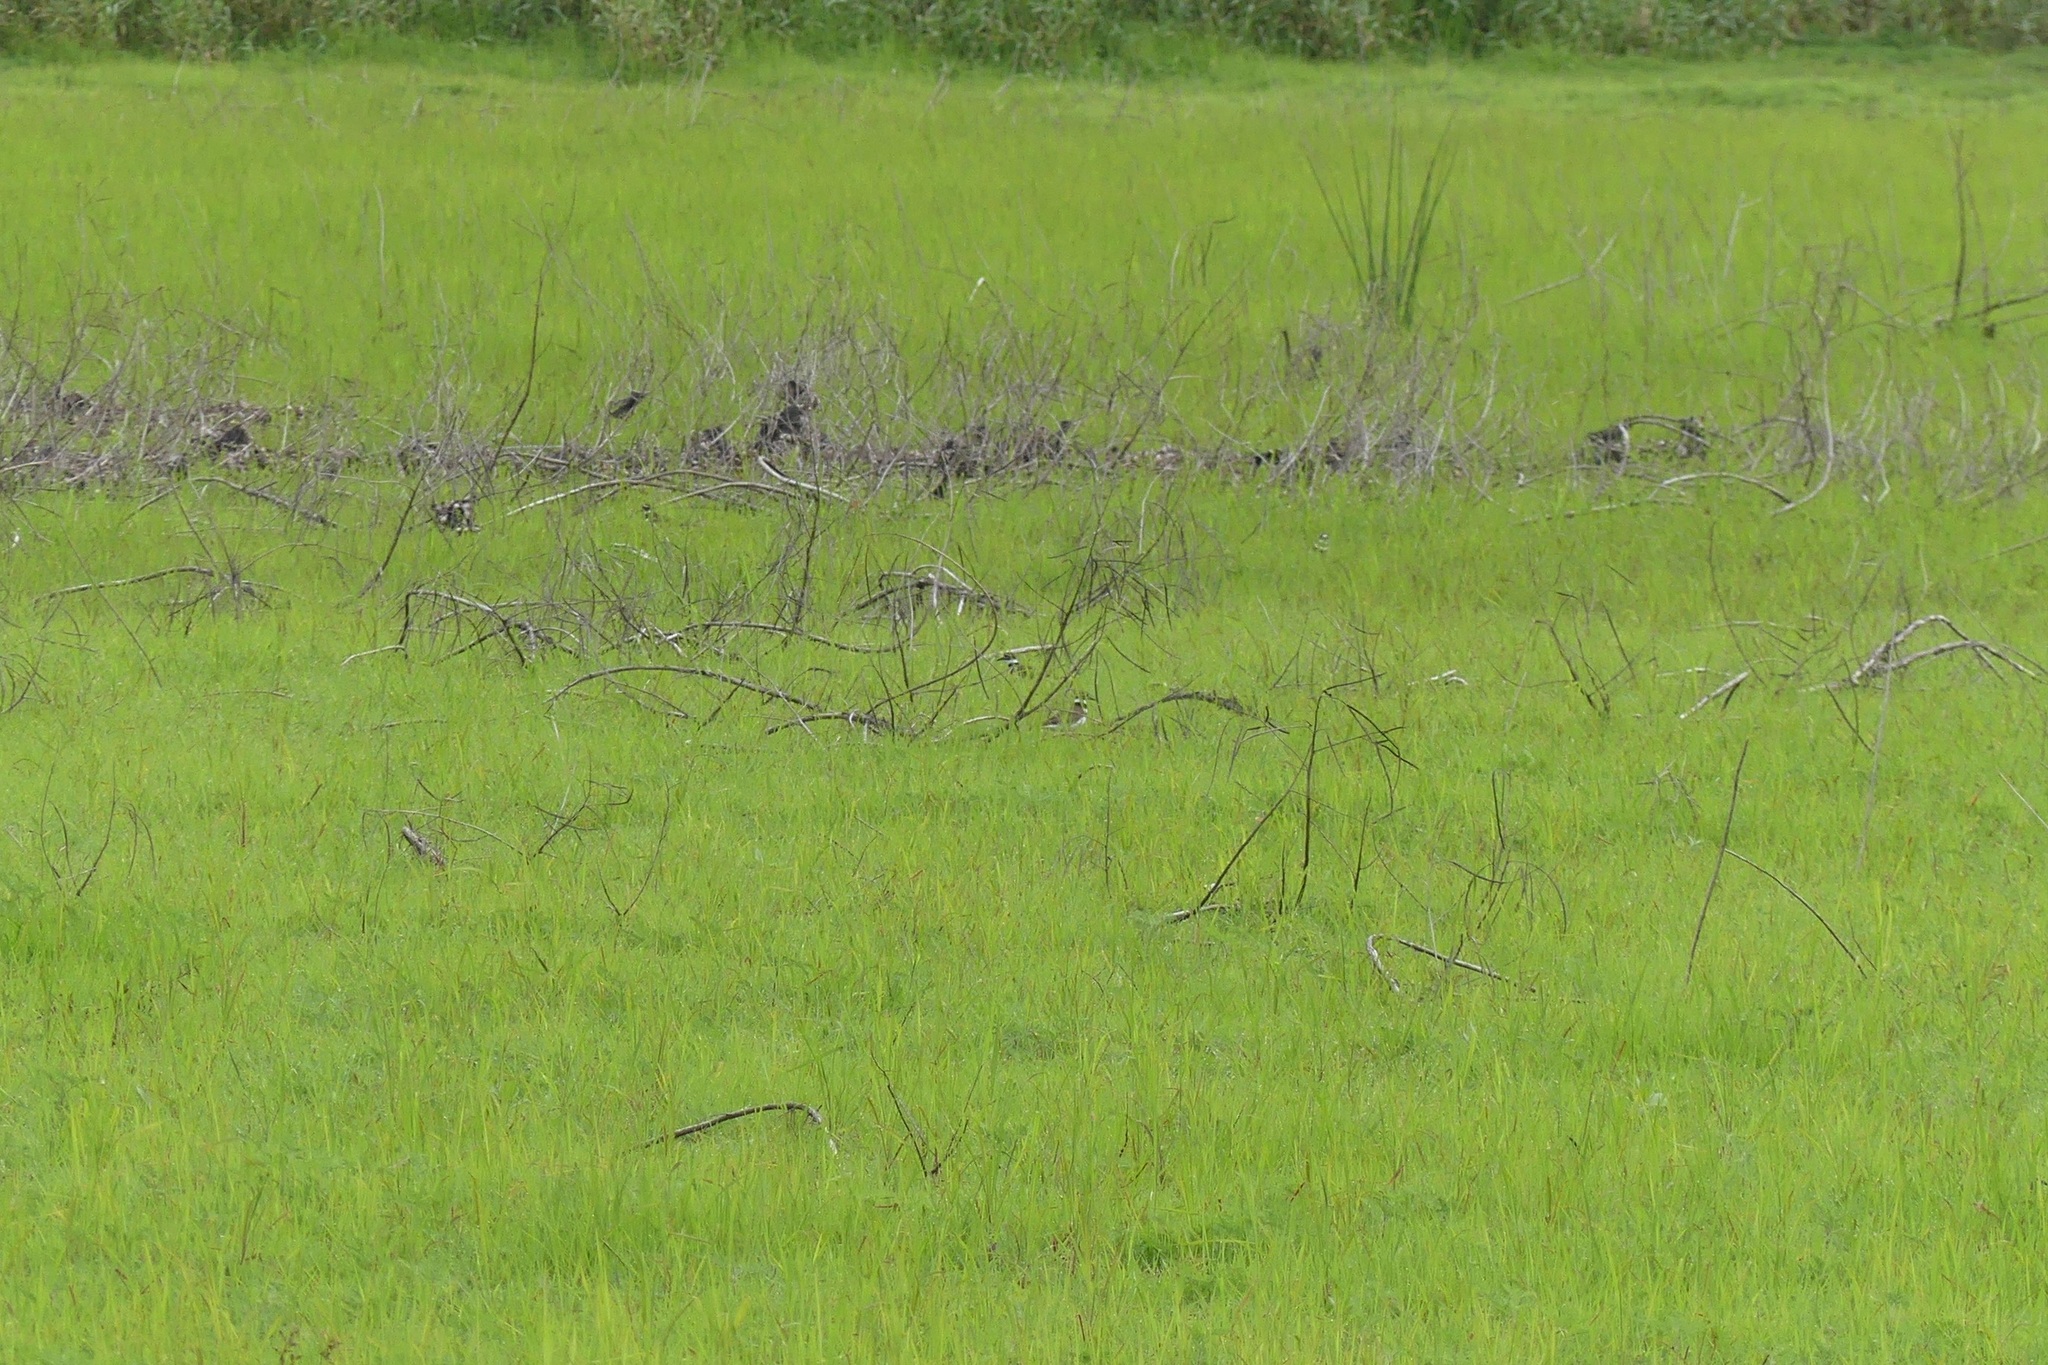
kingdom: Animalia
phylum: Chordata
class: Aves
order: Charadriiformes
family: Charadriidae
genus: Charadrius
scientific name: Charadrius vociferus
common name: Killdeer
